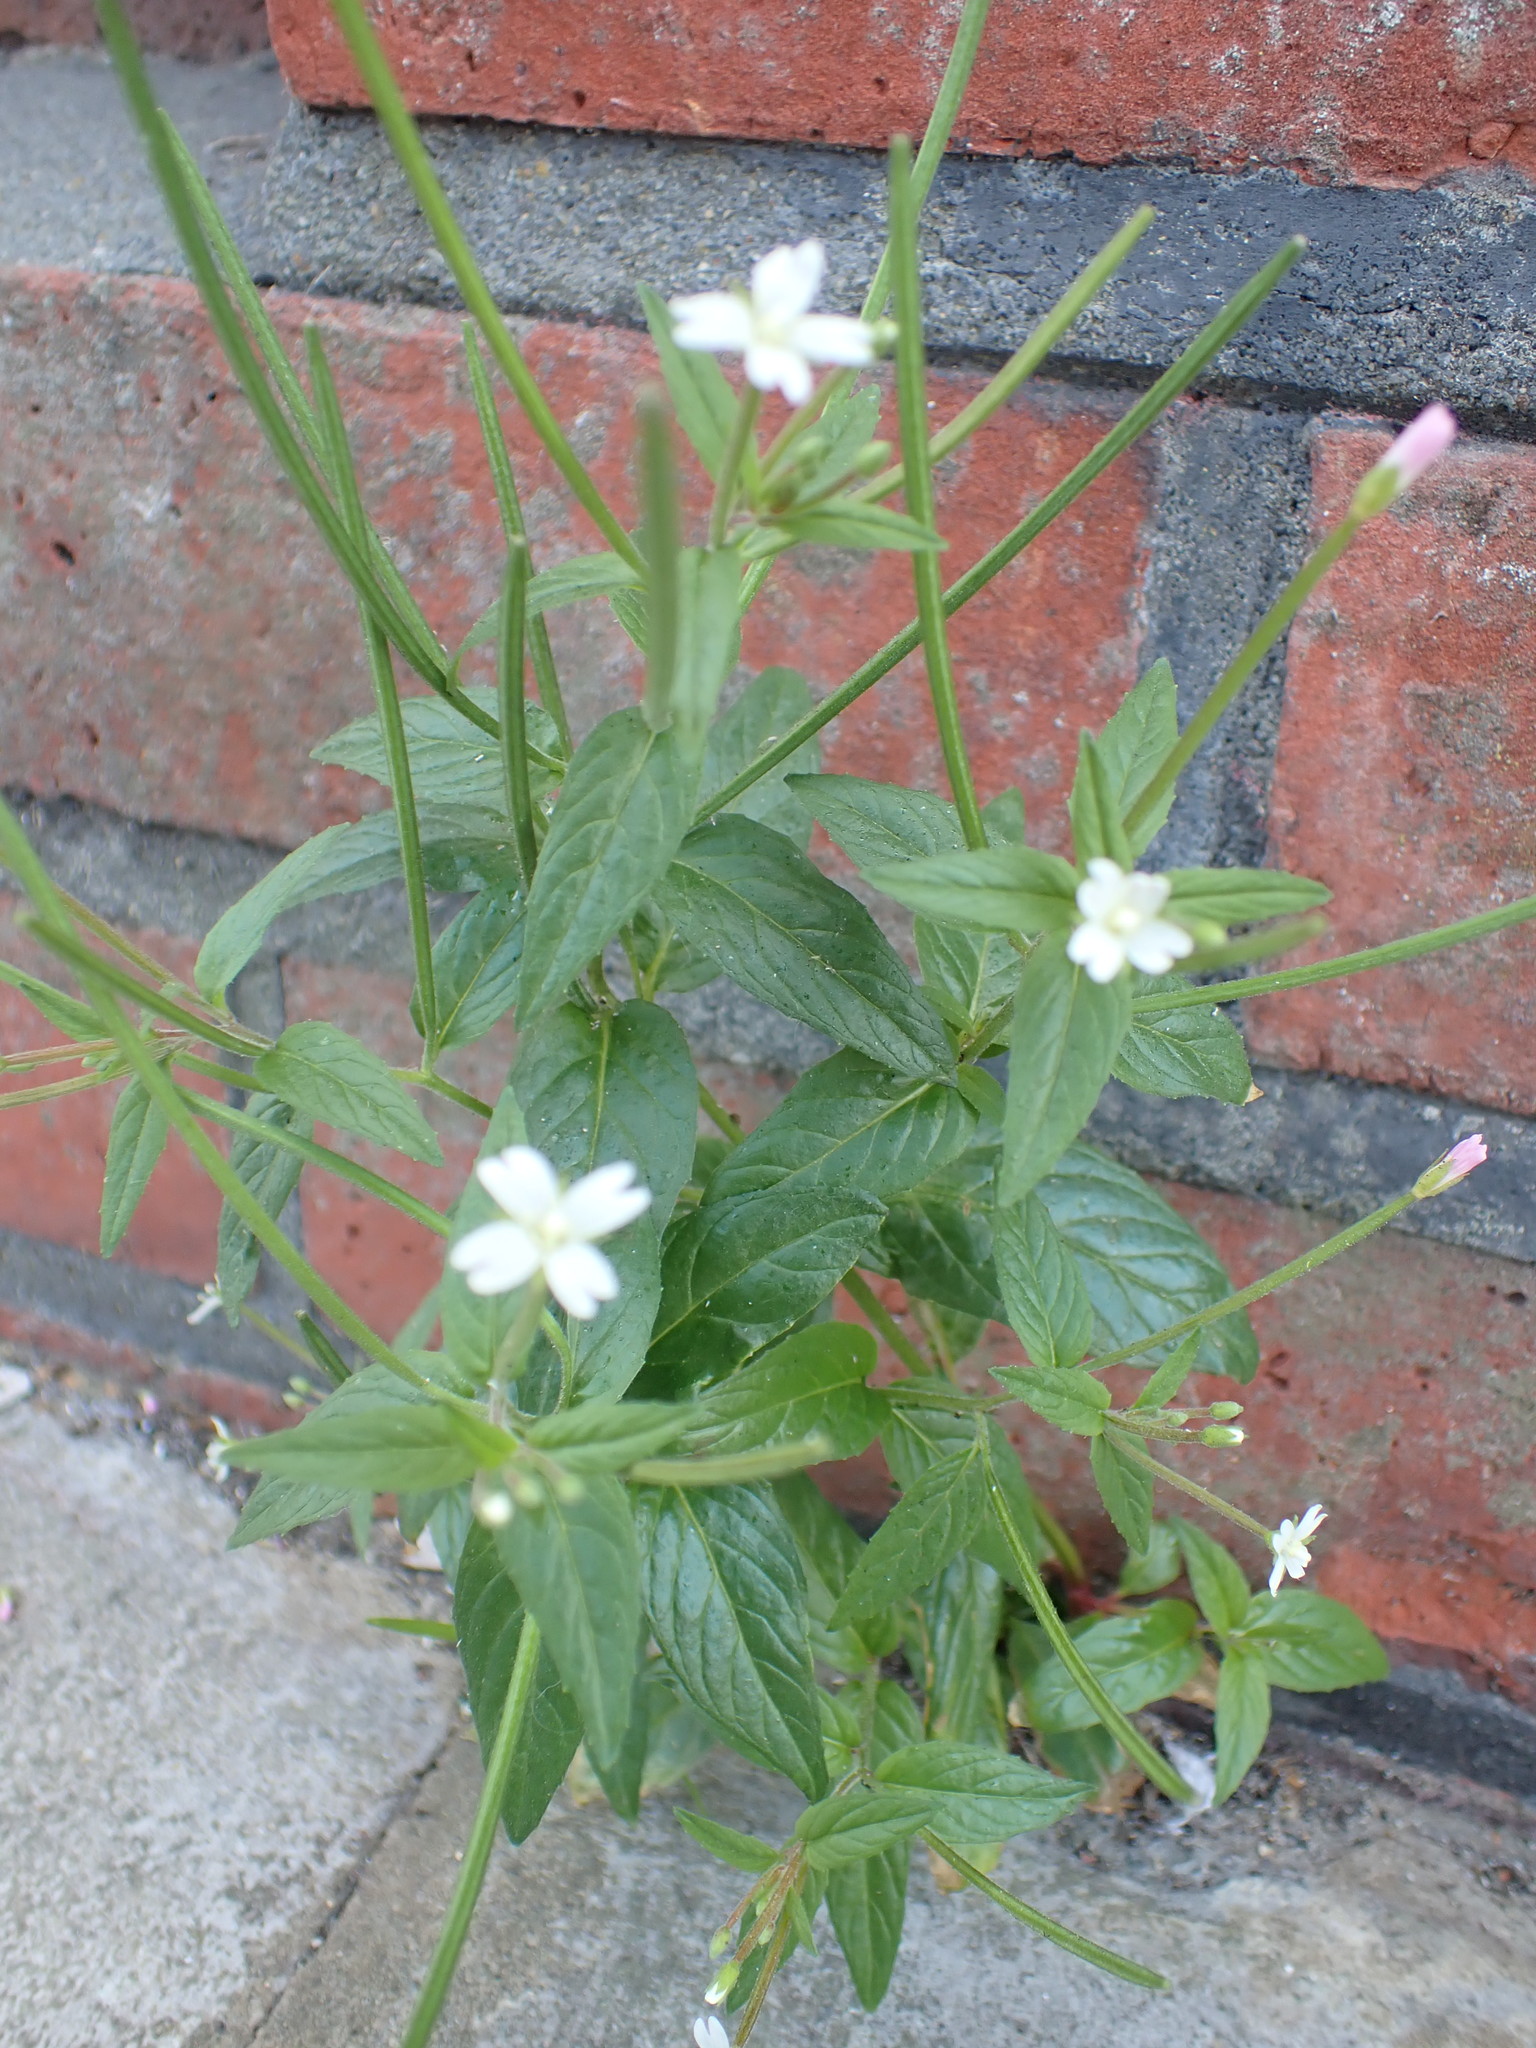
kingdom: Plantae
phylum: Tracheophyta
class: Magnoliopsida
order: Myrtales
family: Onagraceae
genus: Epilobium
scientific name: Epilobium ciliatum
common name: American willowherb
